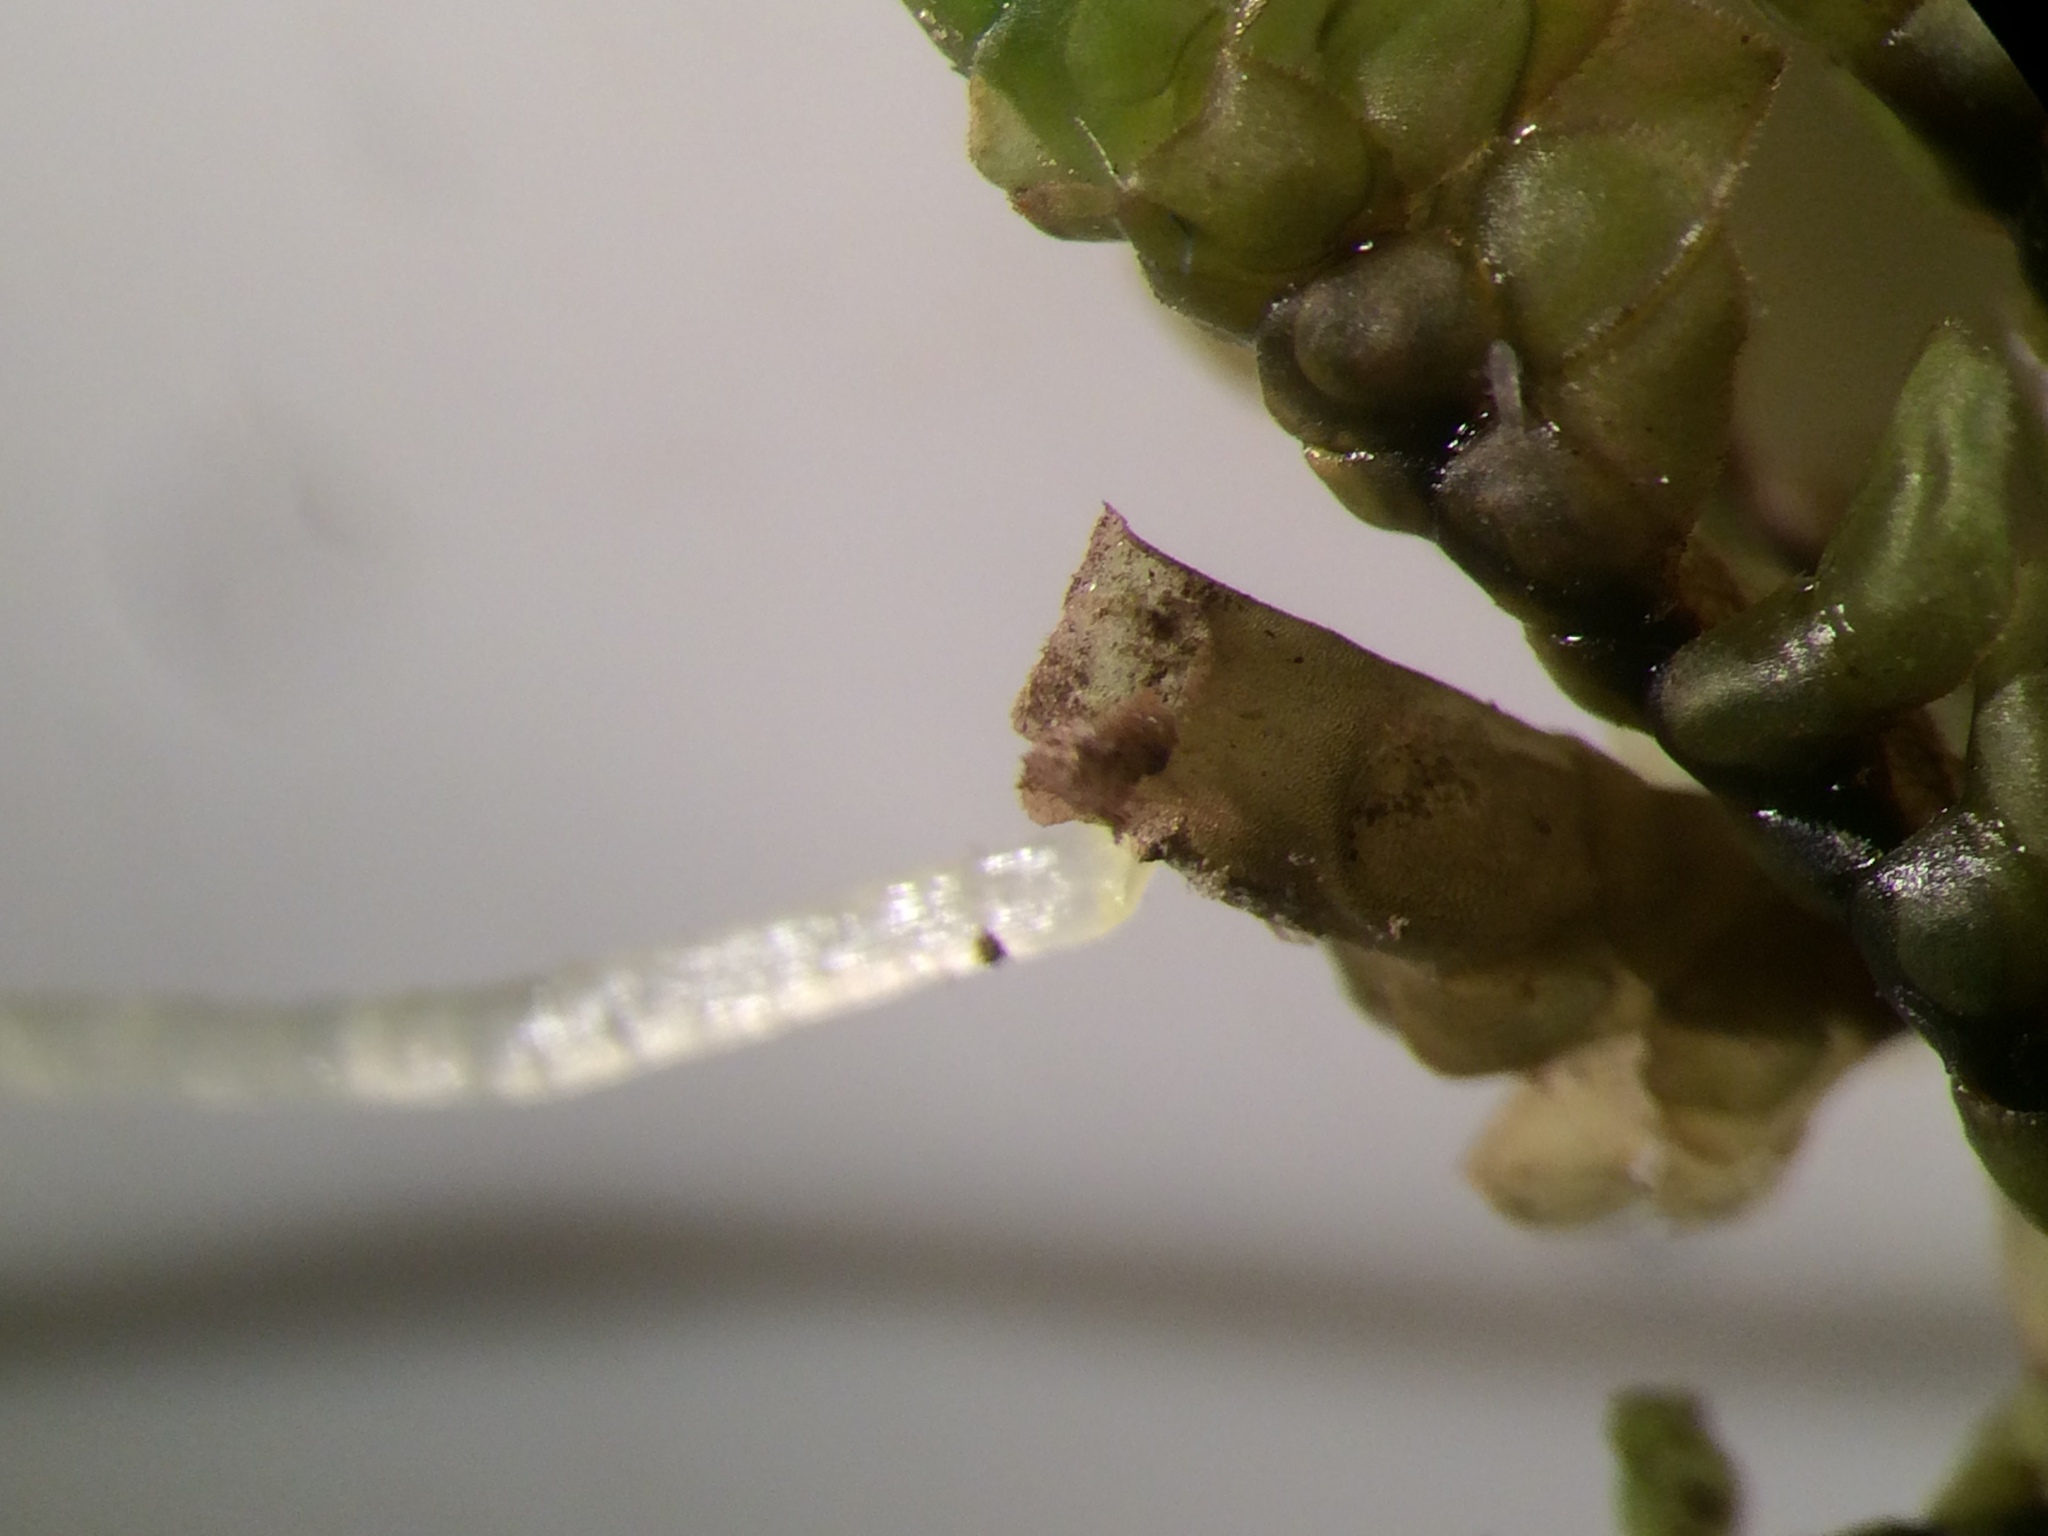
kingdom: Plantae
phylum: Marchantiophyta
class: Jungermanniopsida
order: Jungermanniales
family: Scapaniaceae
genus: Scapania
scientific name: Scapania nemorea
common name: Grove earwort
